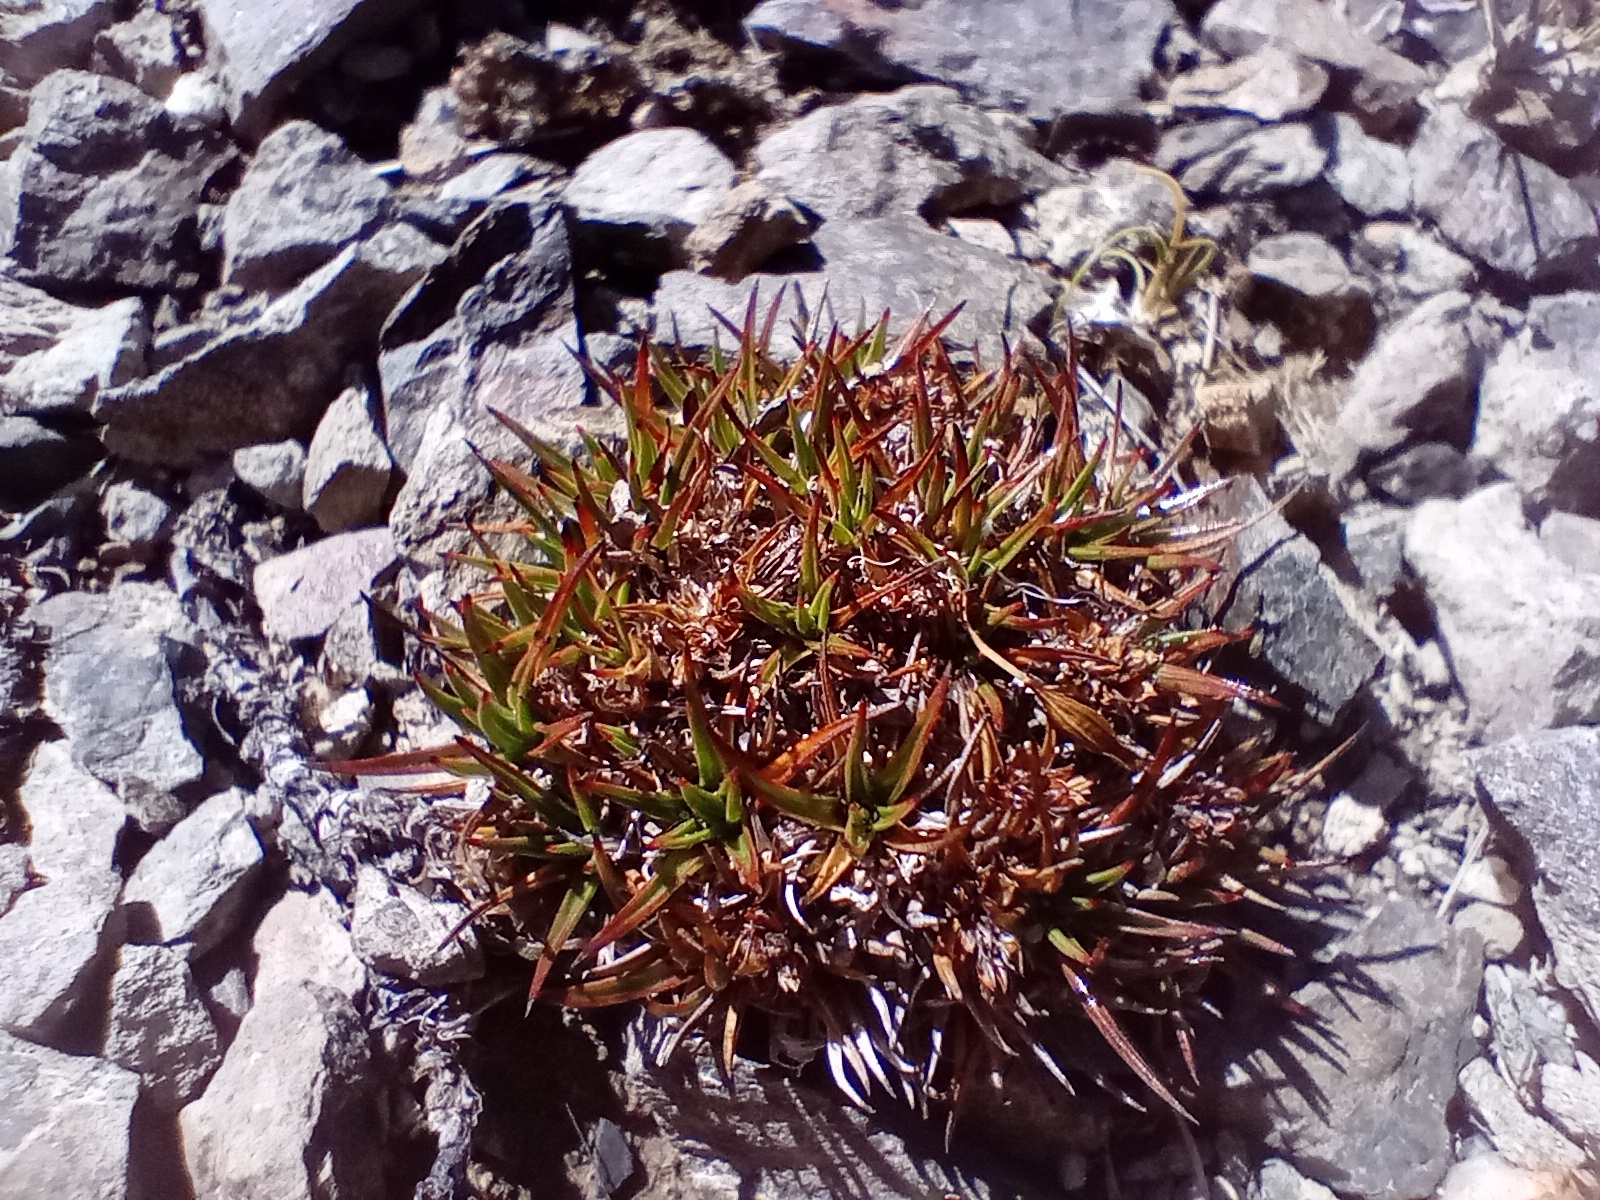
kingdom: Plantae
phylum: Tracheophyta
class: Liliopsida
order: Poales
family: Juncaceae
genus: Luzula
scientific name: Luzula pumila
